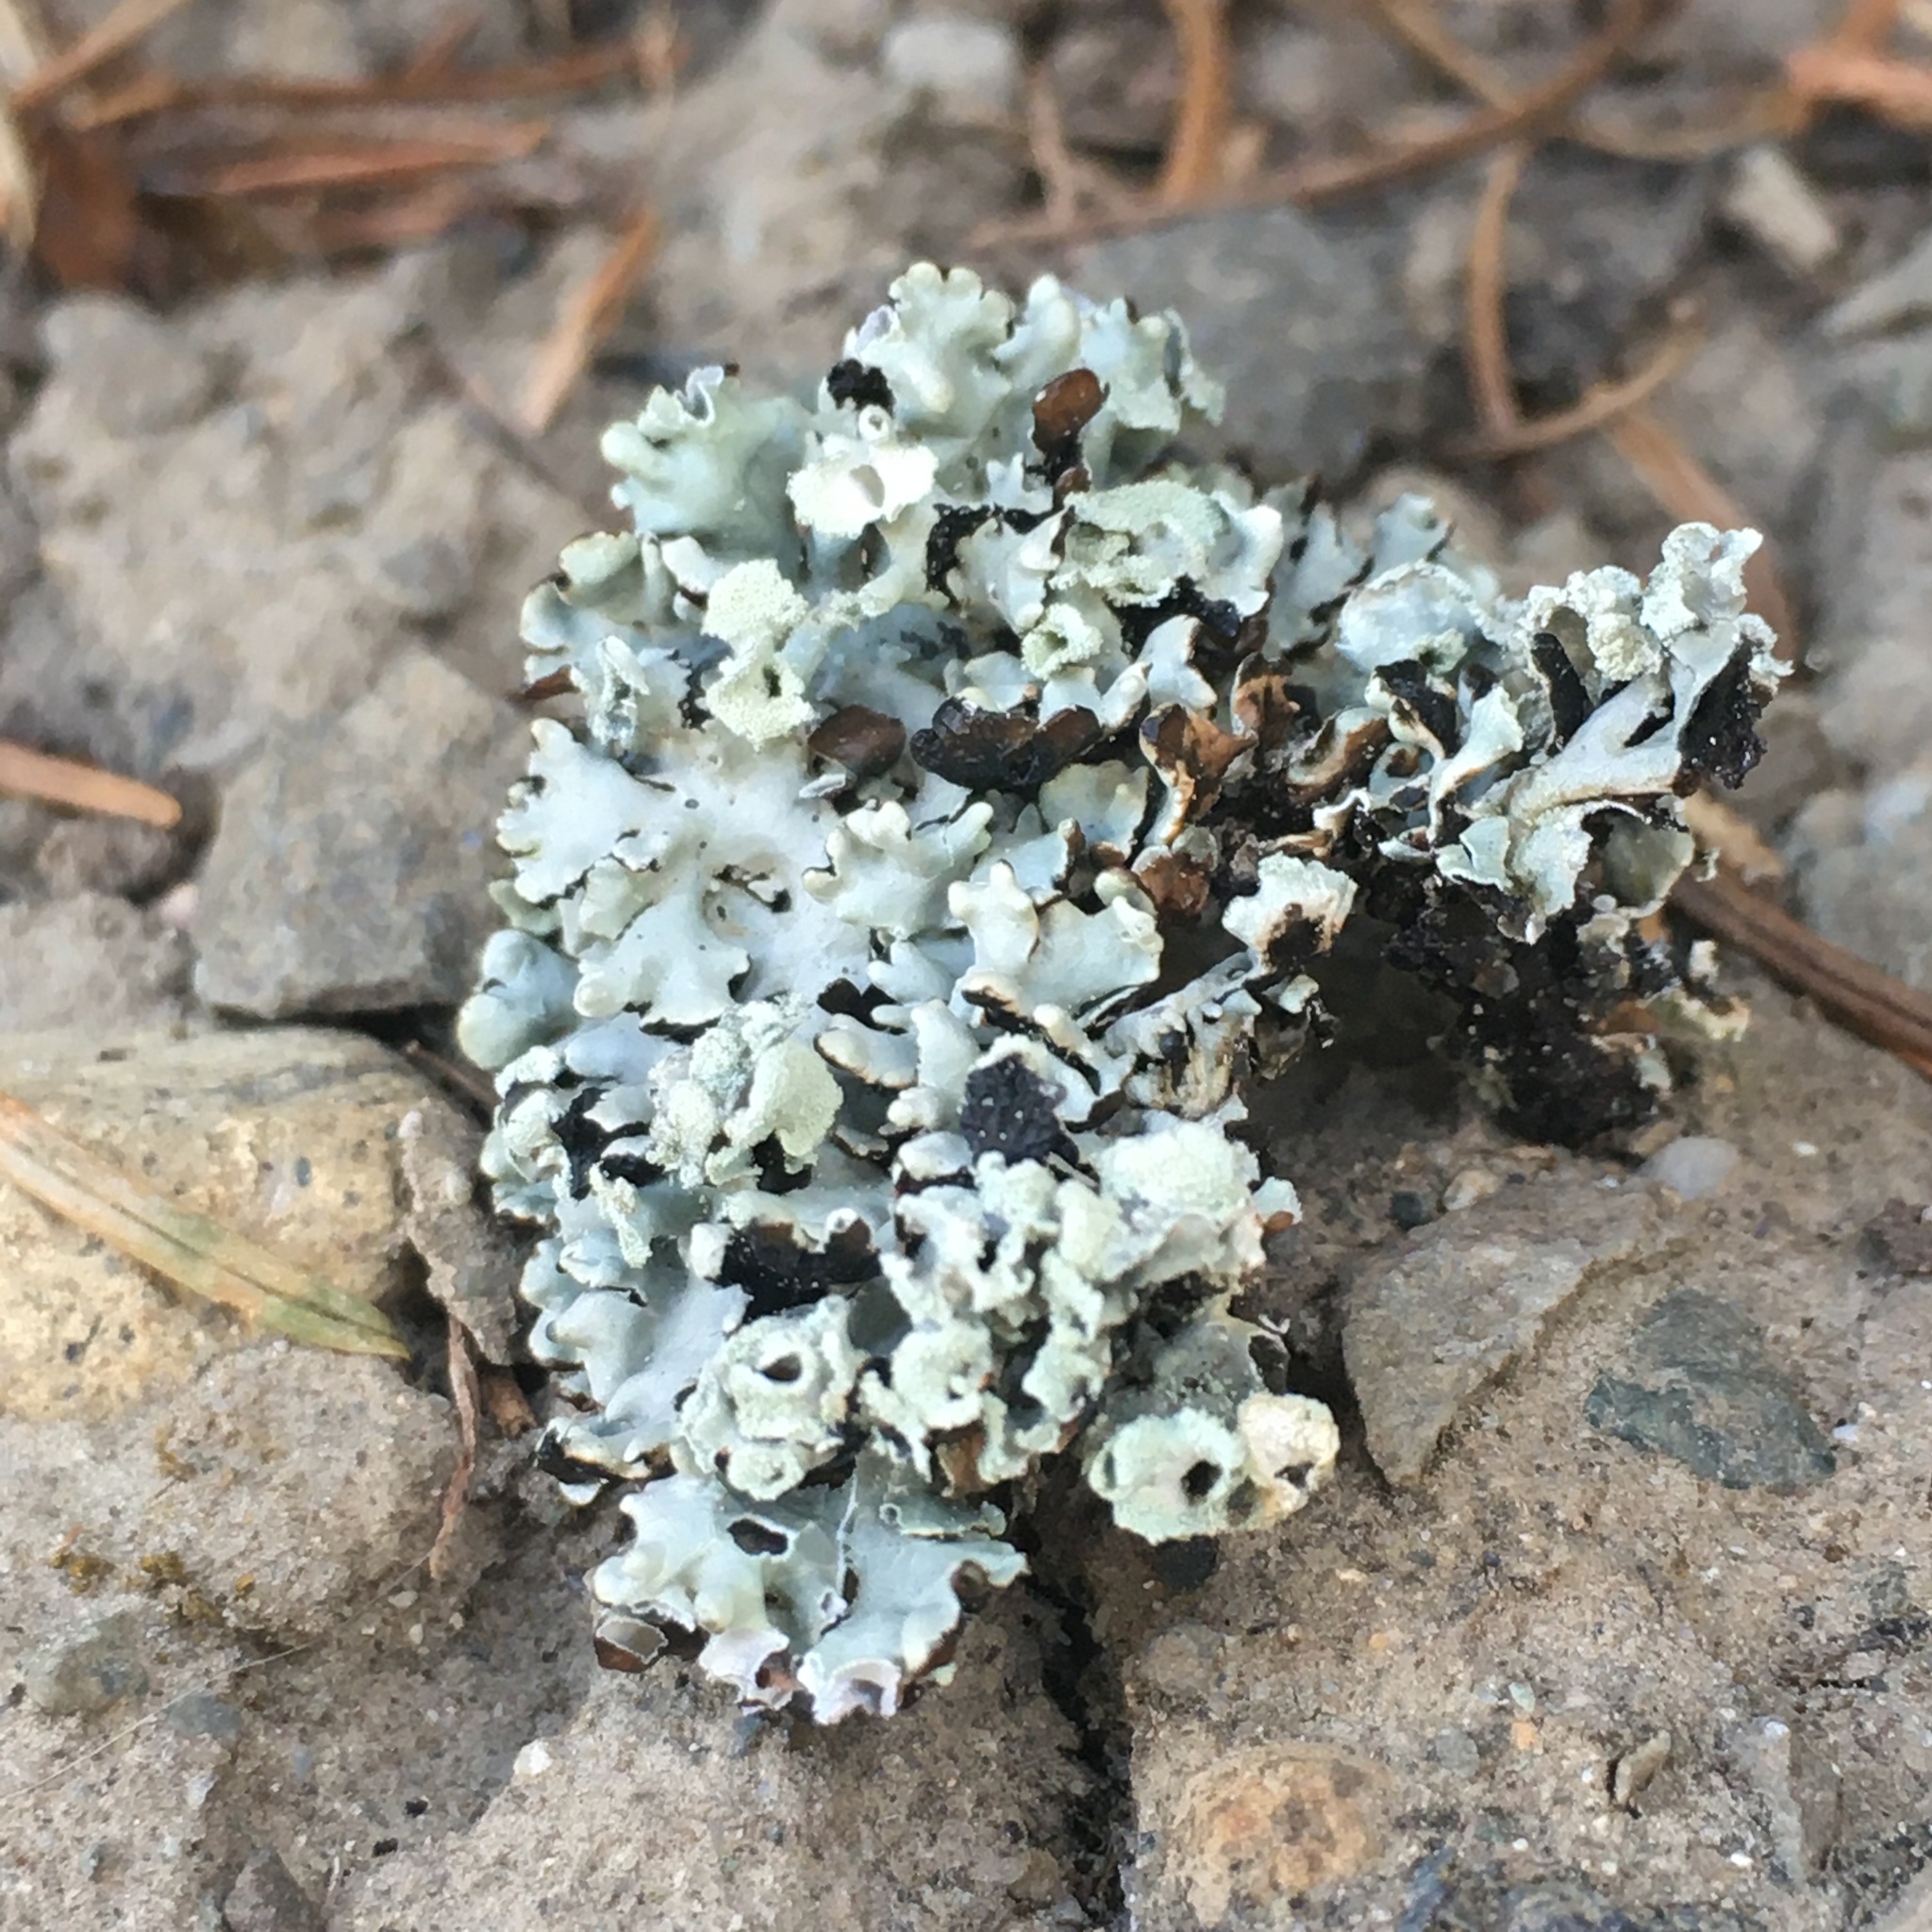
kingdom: Fungi
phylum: Ascomycota
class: Lecanoromycetes
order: Lecanorales
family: Parmeliaceae
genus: Hypogymnia
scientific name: Hypogymnia physodes
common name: Dark crottle
